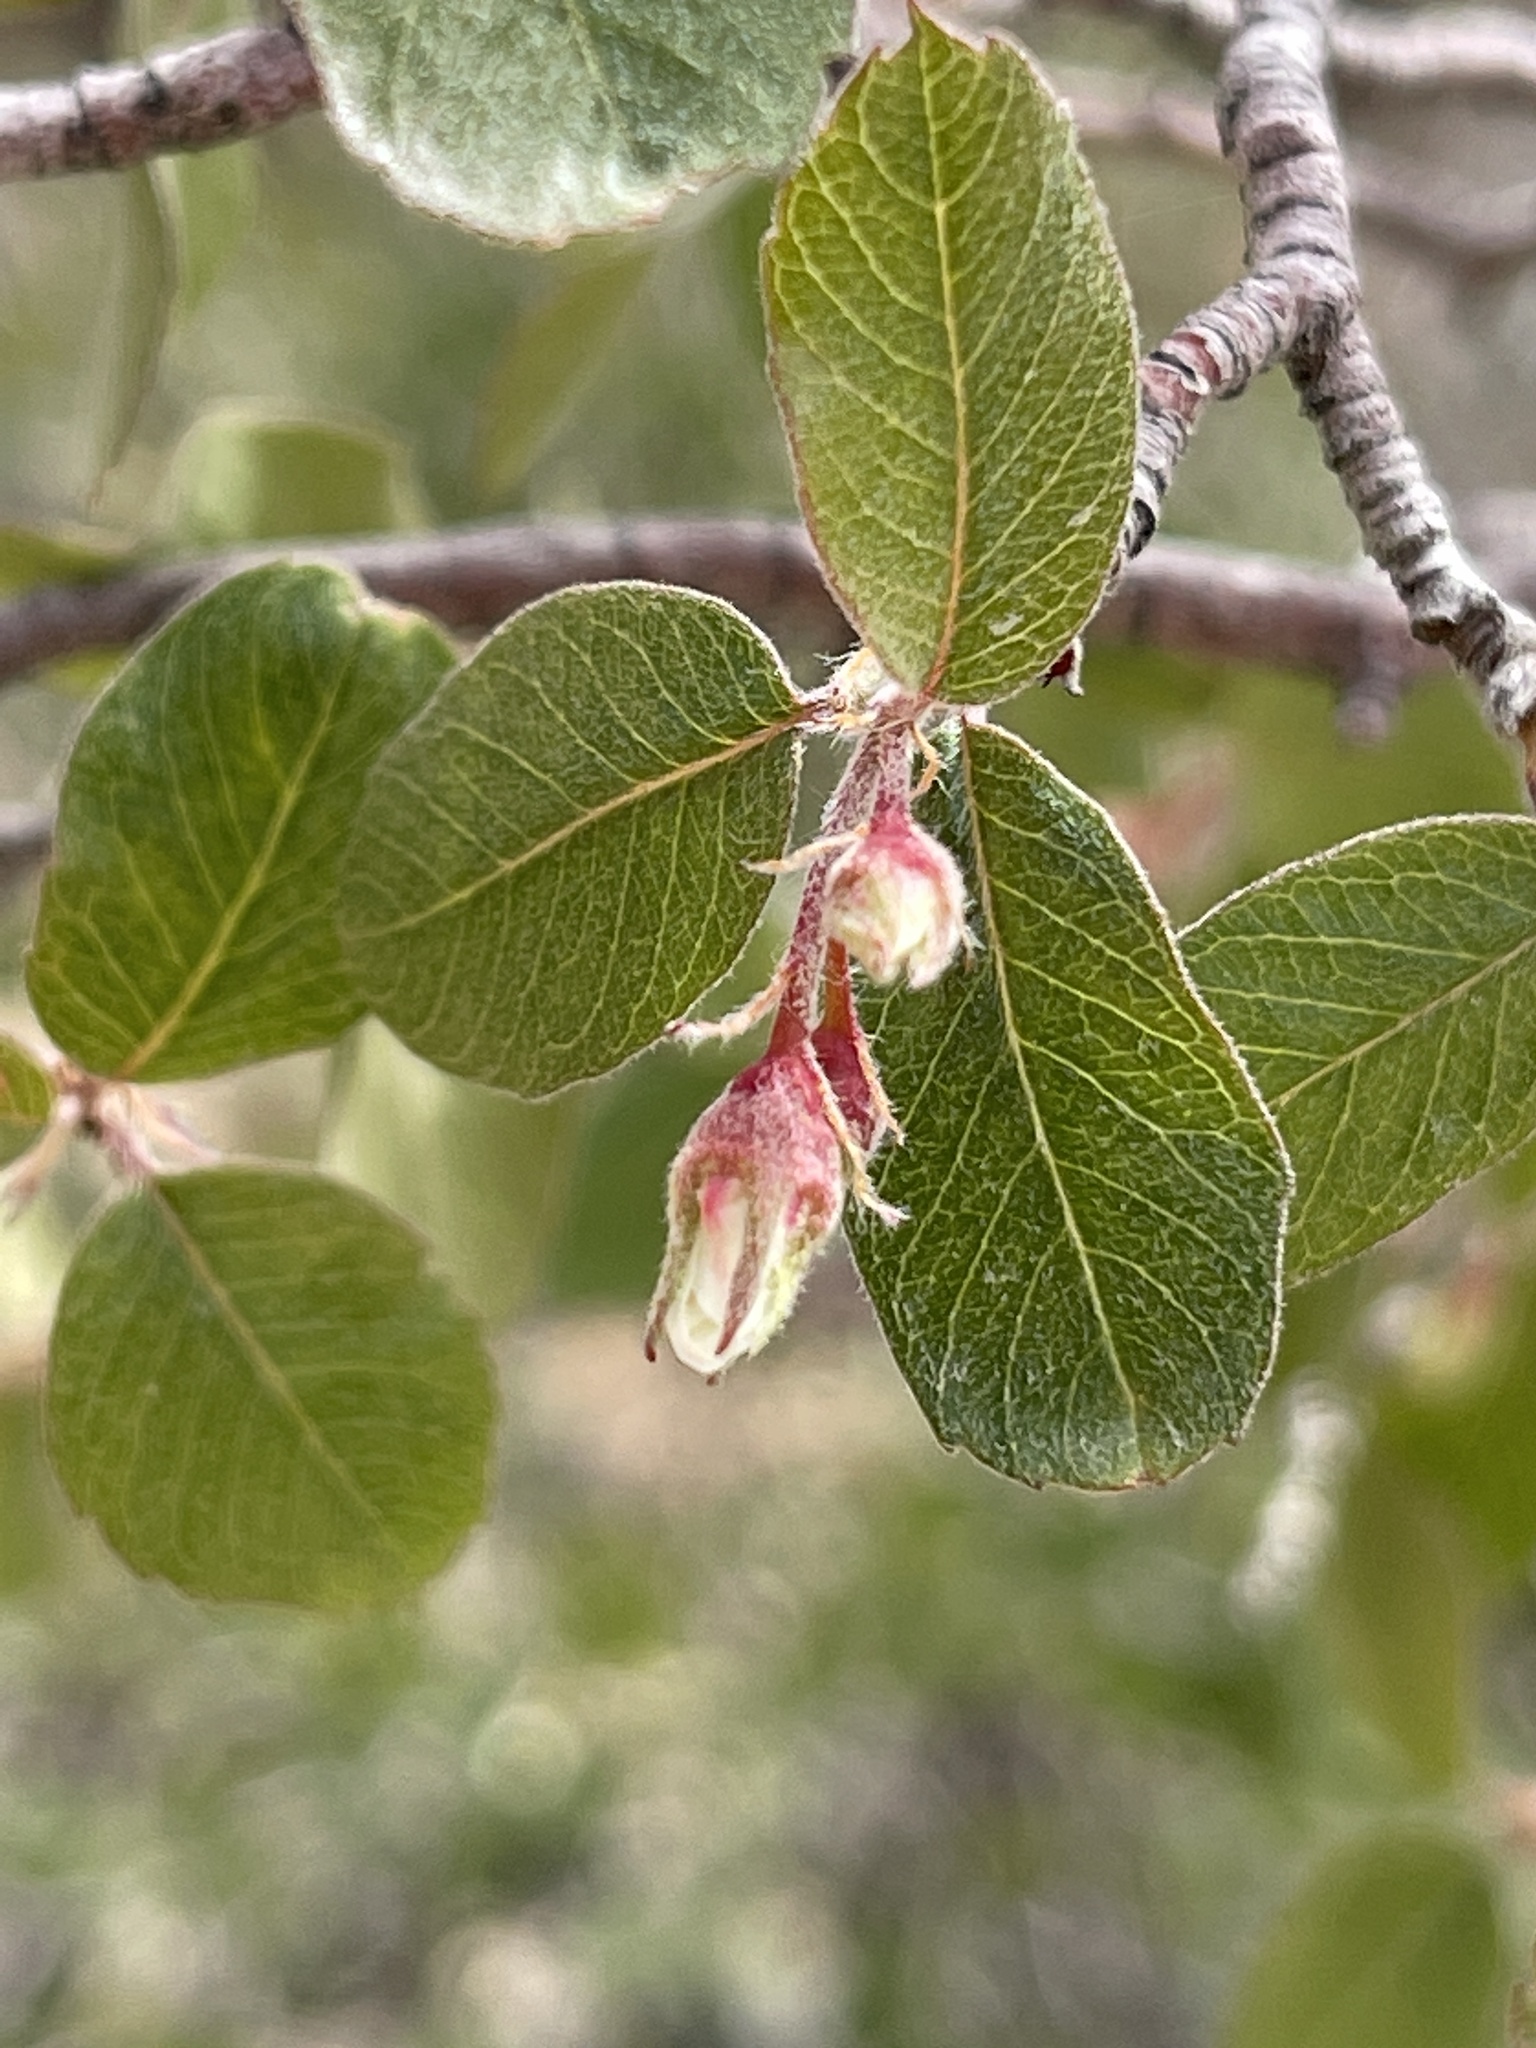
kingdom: Plantae
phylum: Tracheophyta
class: Magnoliopsida
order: Rosales
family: Rosaceae
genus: Amelanchier
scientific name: Amelanchier utahensis
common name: Utah serviceberry
